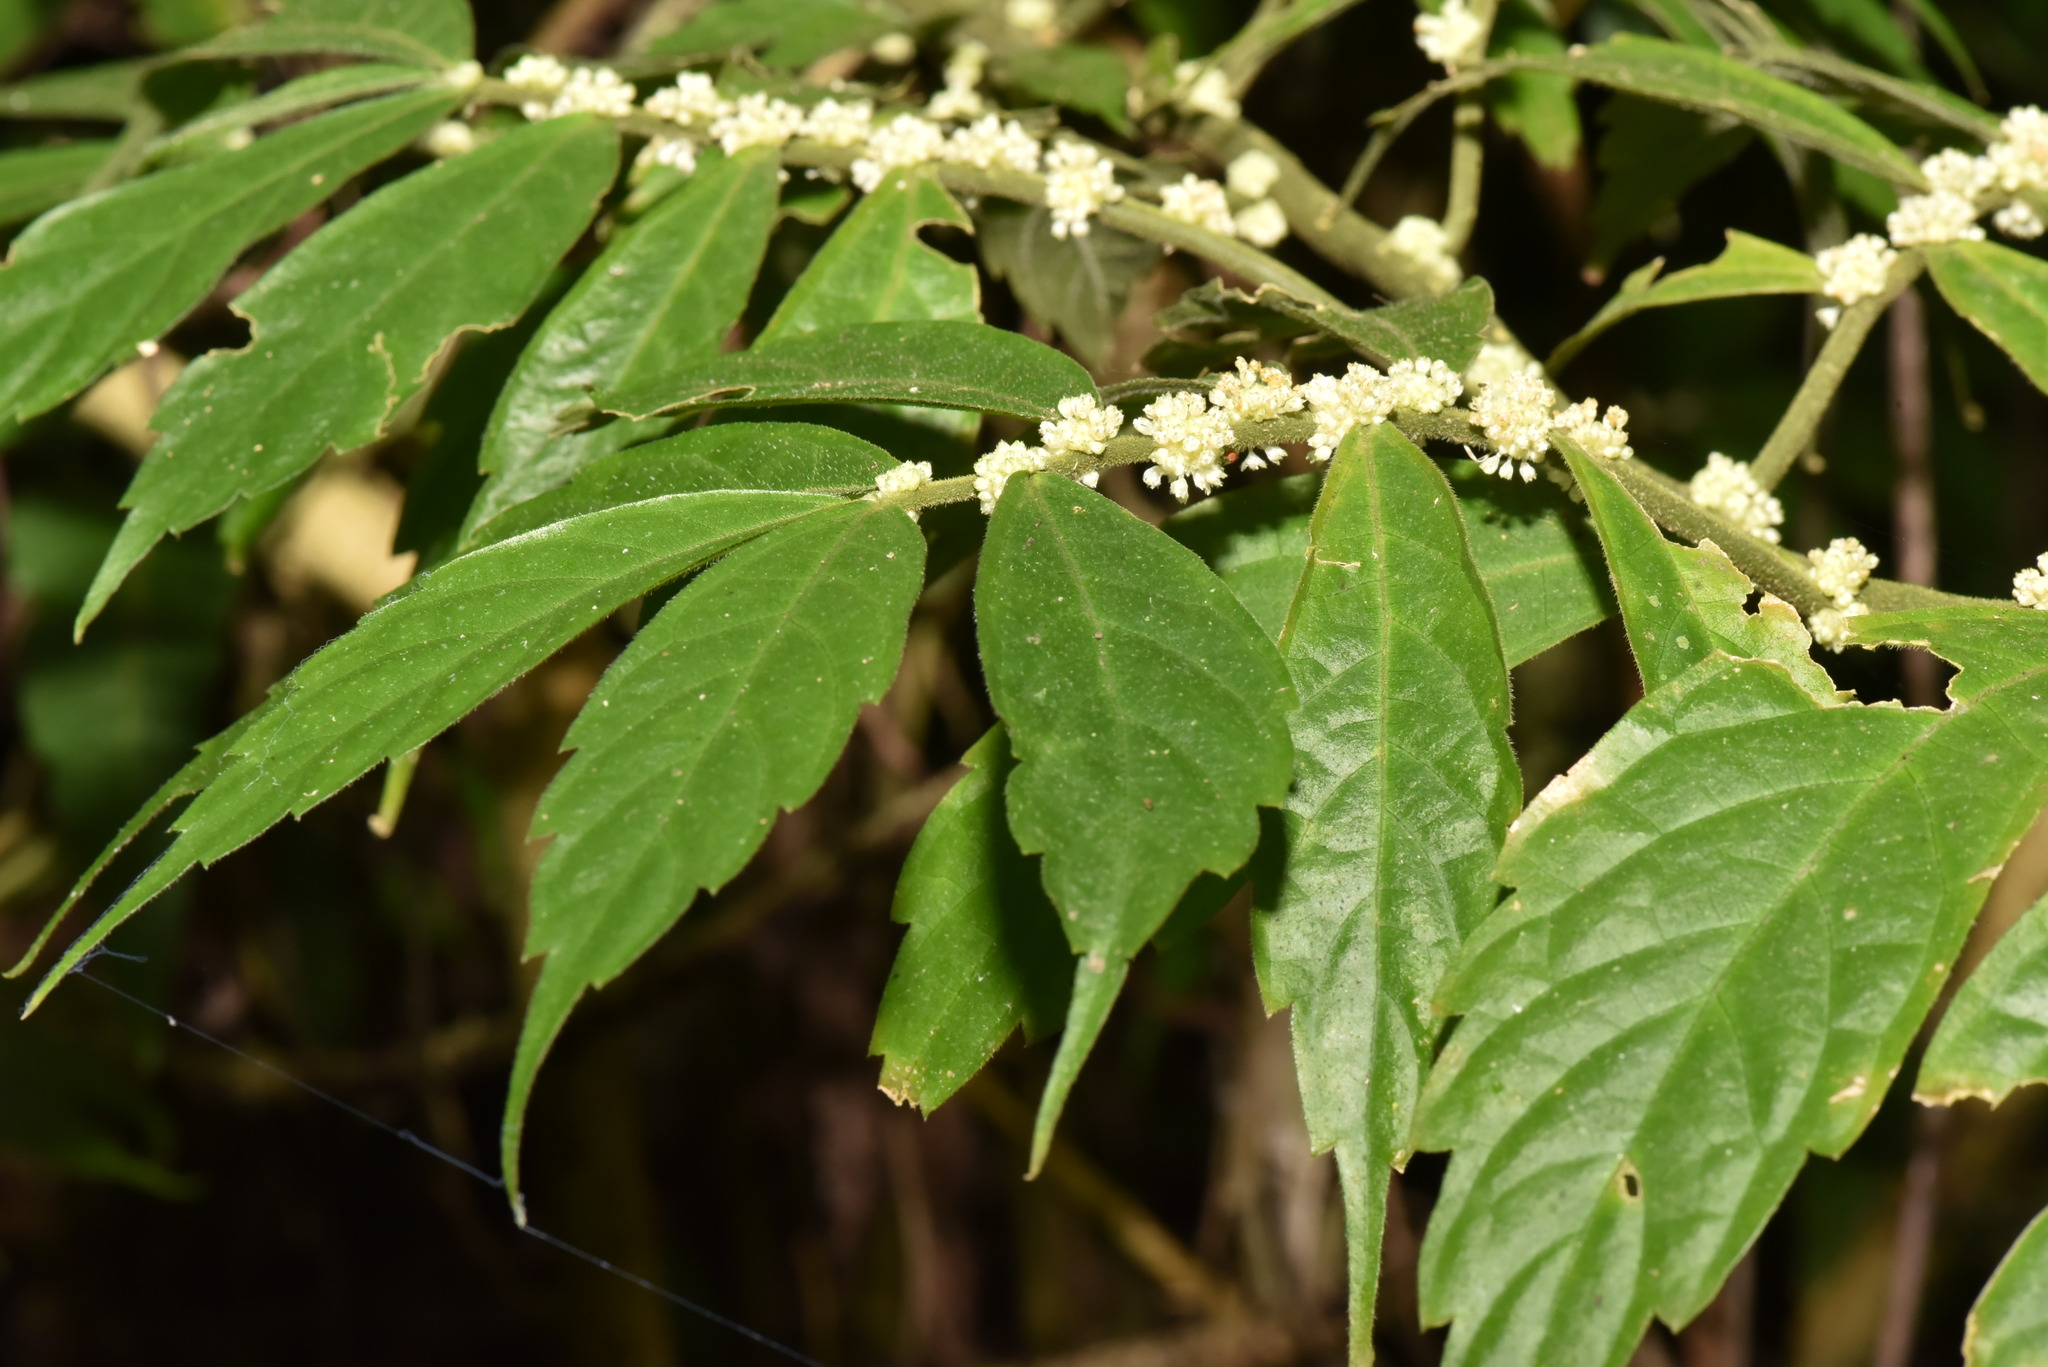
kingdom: Plantae
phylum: Tracheophyta
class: Magnoliopsida
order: Rosales
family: Urticaceae
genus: Elatostema
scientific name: Elatostema lineolatum
